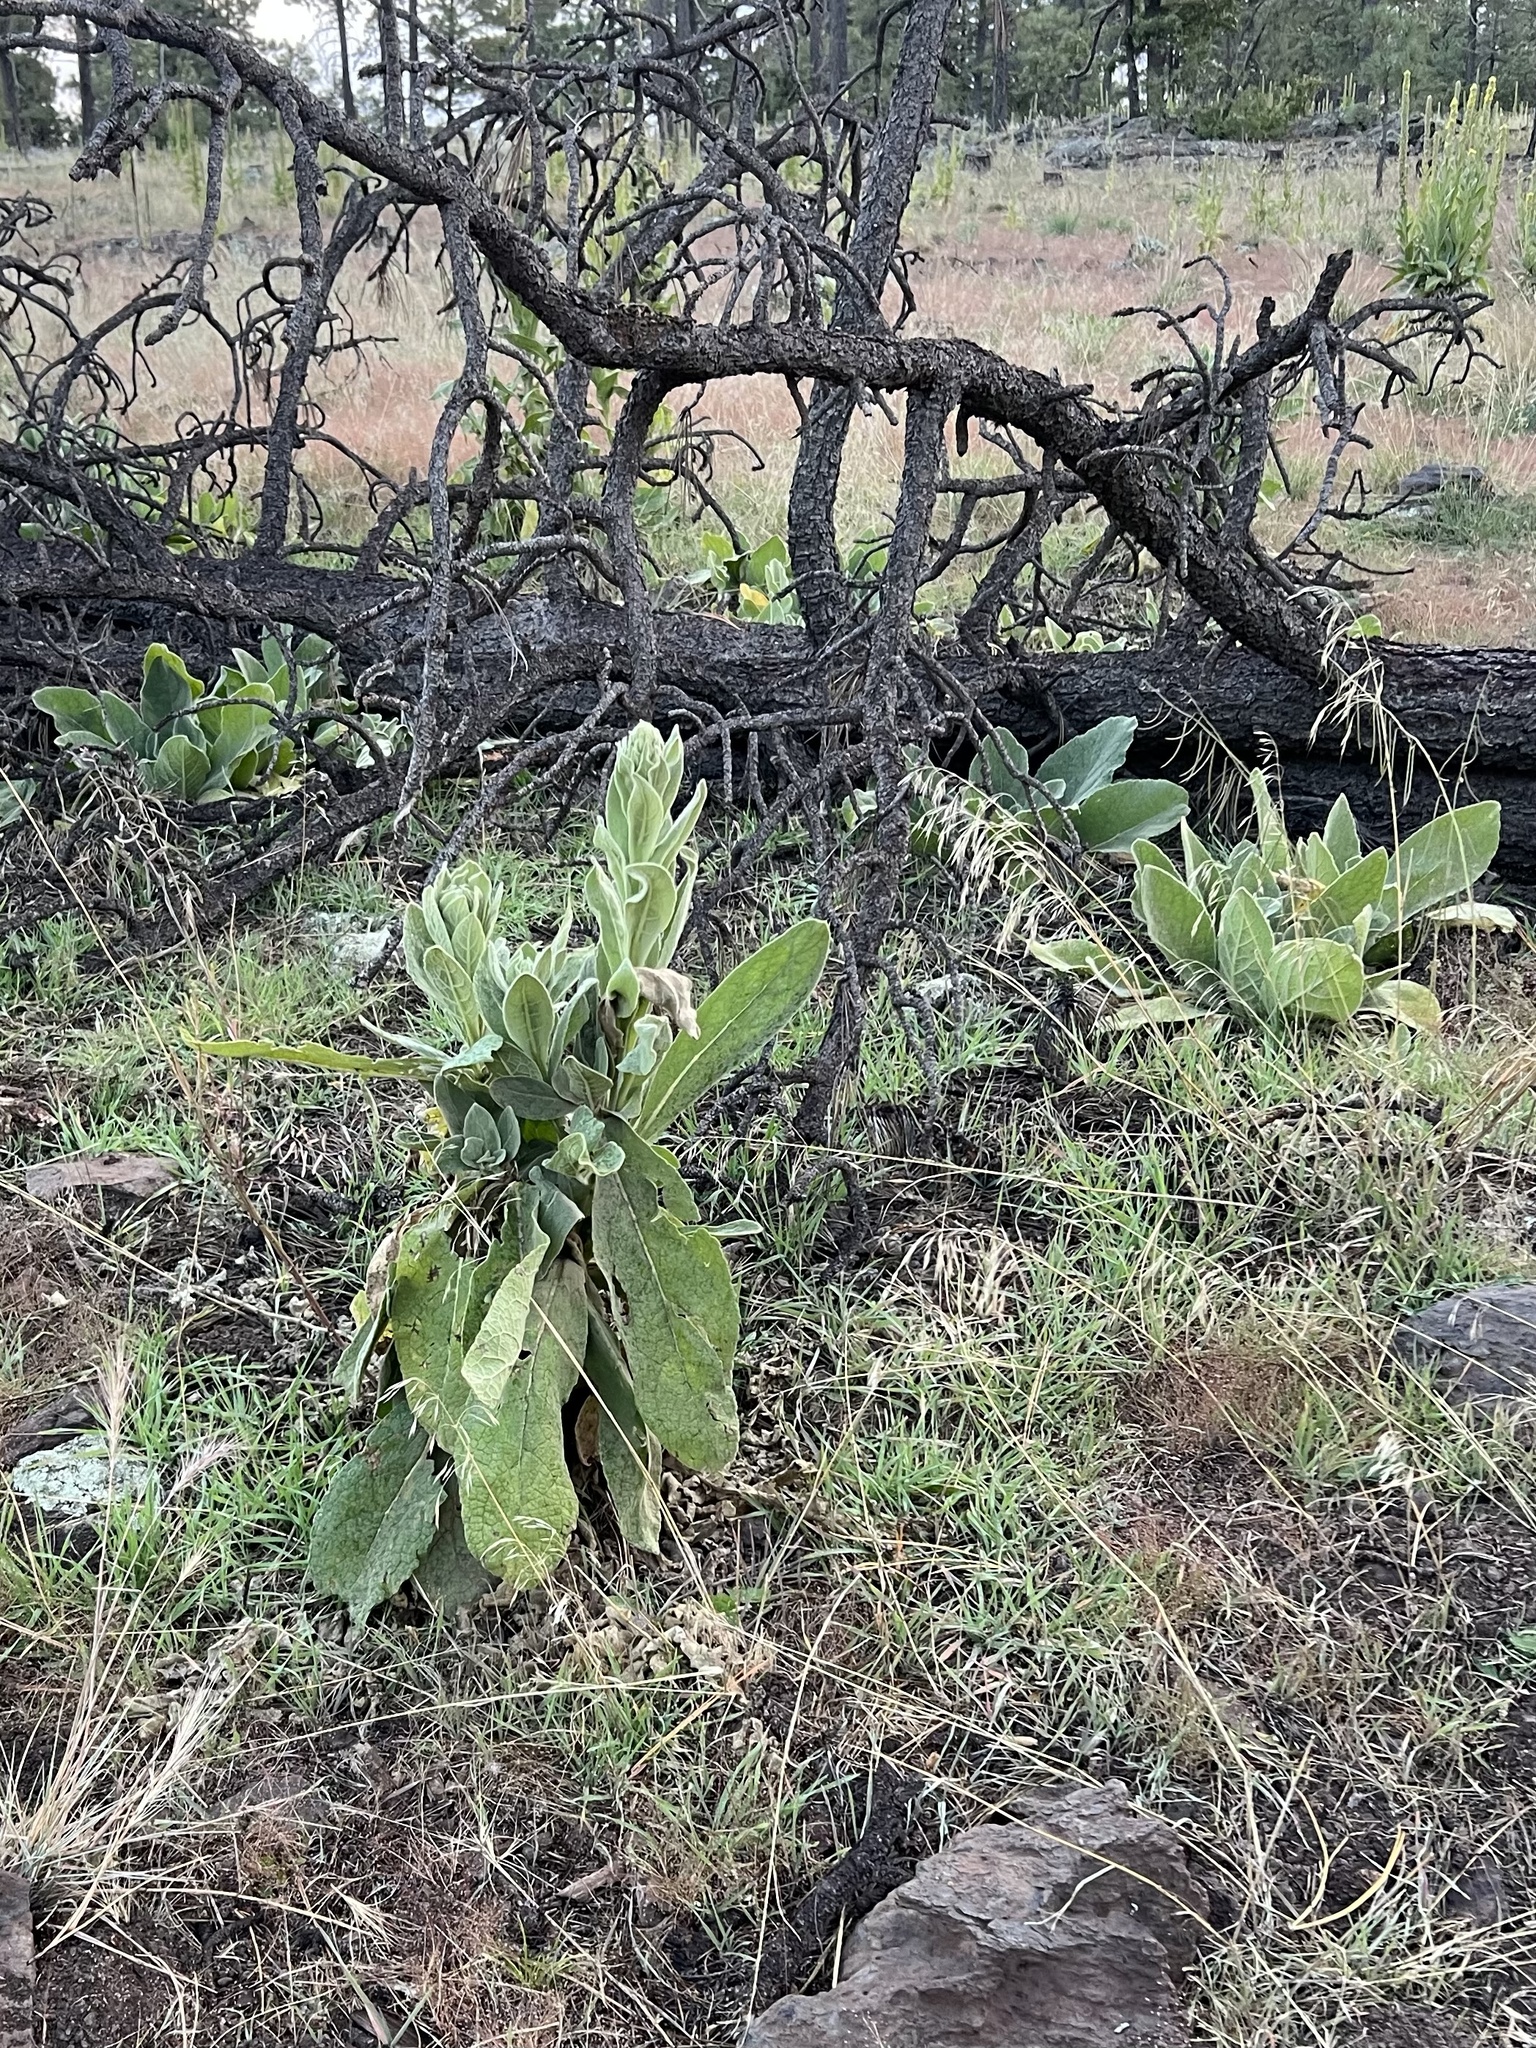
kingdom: Plantae
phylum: Tracheophyta
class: Magnoliopsida
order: Lamiales
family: Scrophulariaceae
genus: Verbascum
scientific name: Verbascum thapsus
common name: Common mullein
